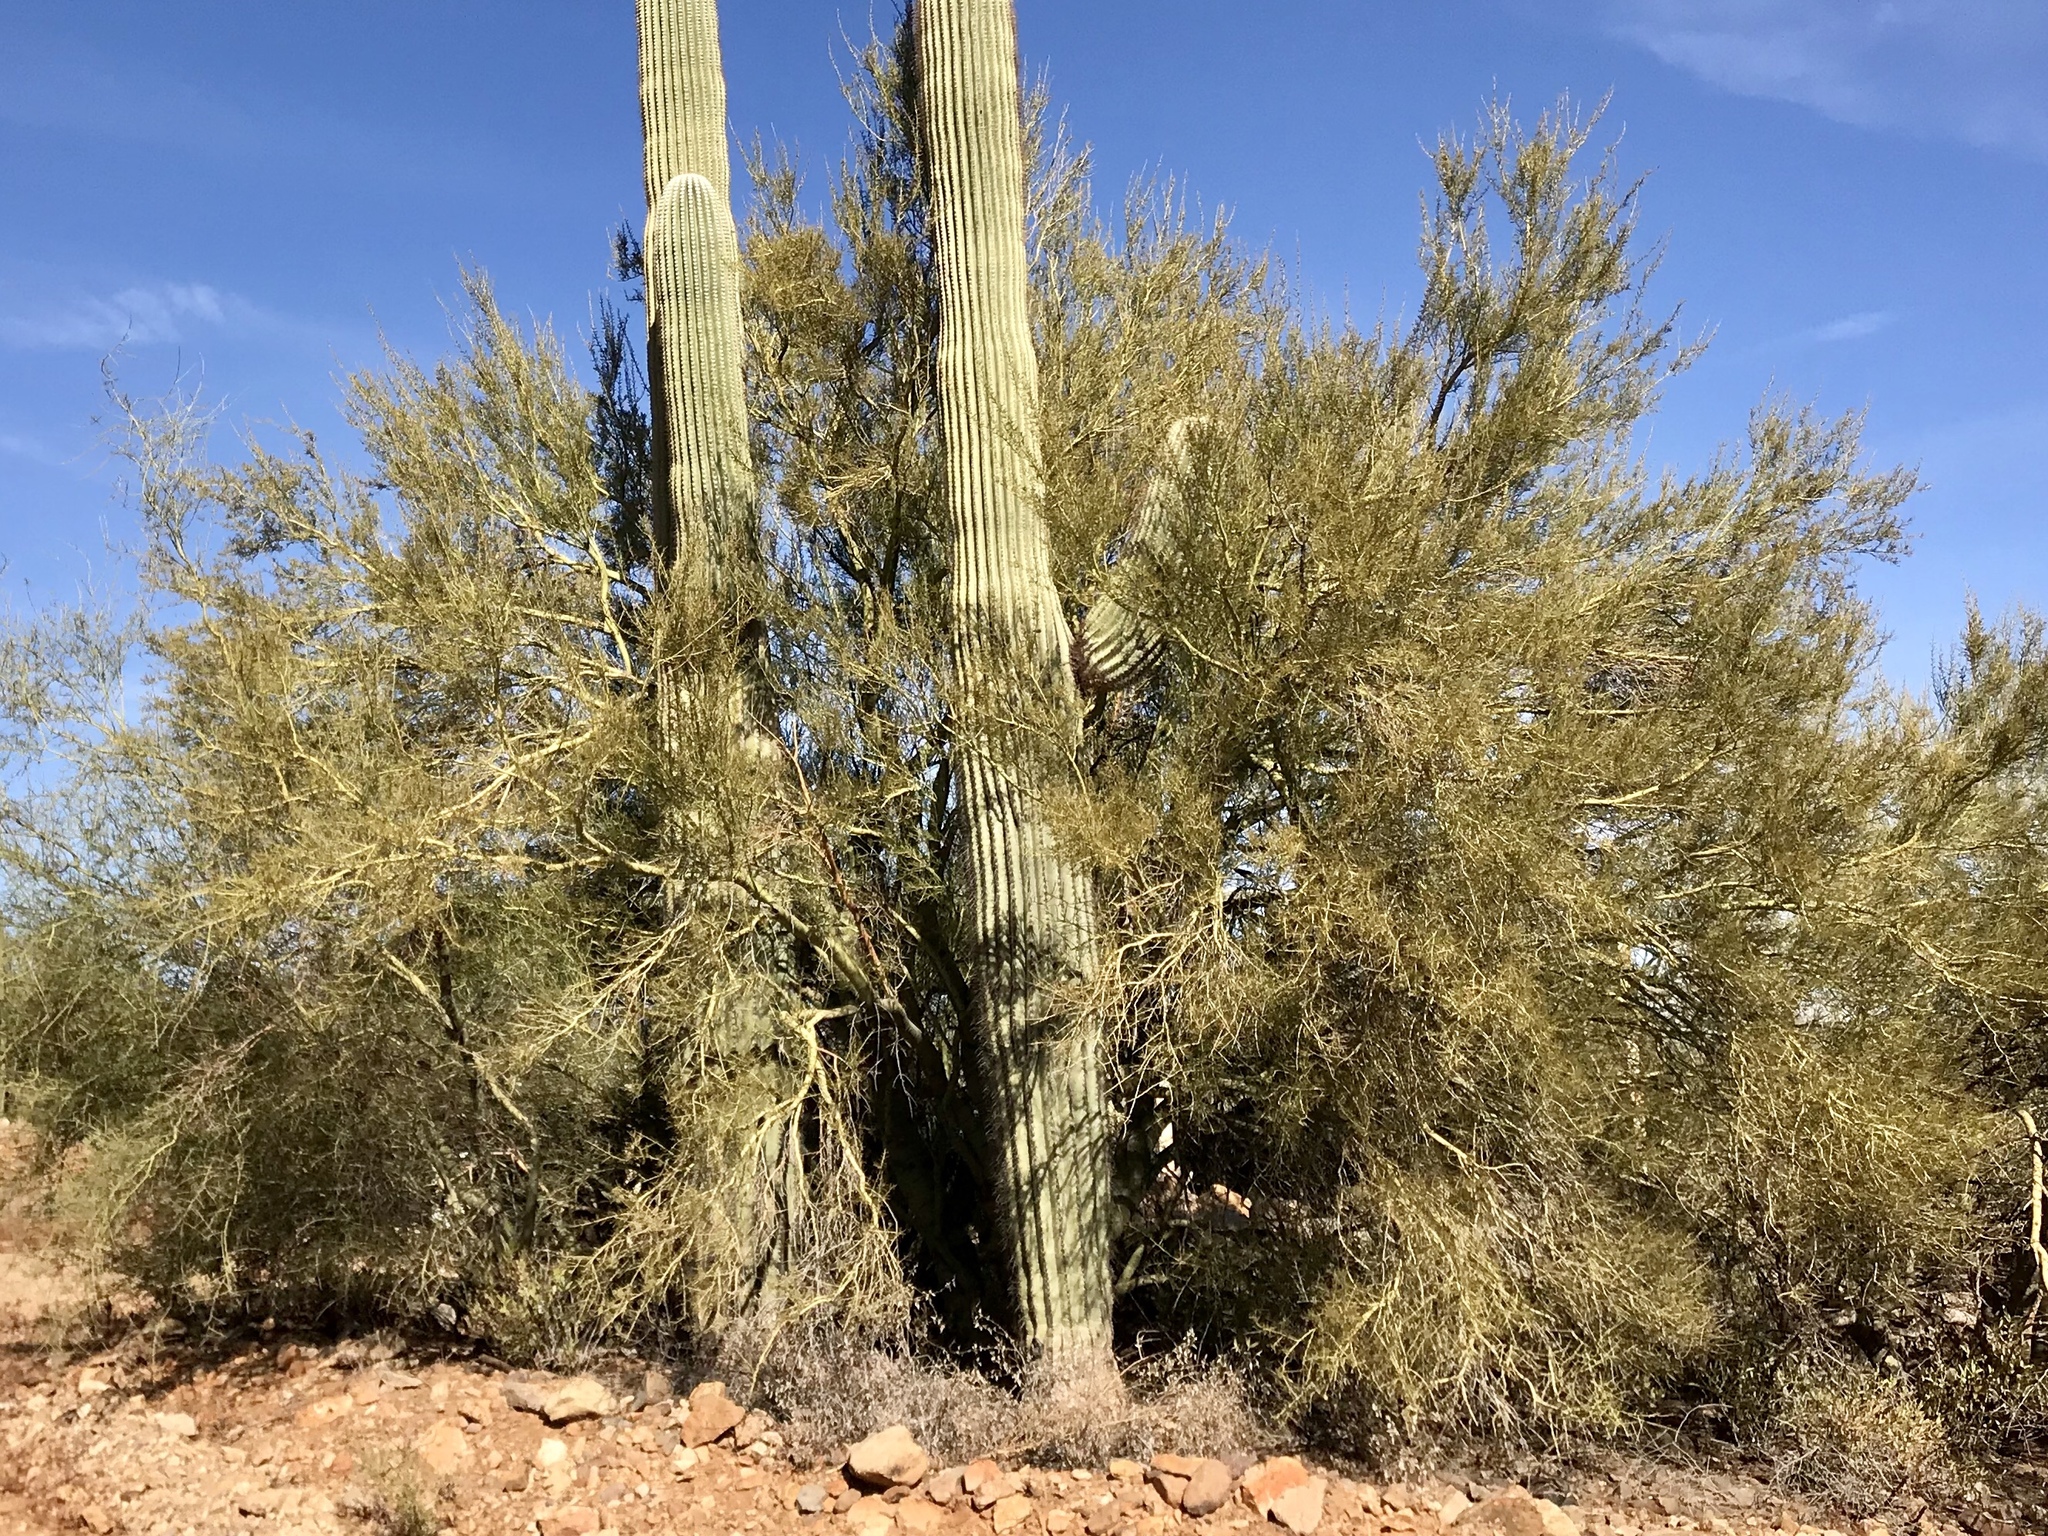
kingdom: Plantae
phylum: Tracheophyta
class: Magnoliopsida
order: Fabales
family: Fabaceae
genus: Parkinsonia
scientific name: Parkinsonia microphylla
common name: Yellow paloverde
